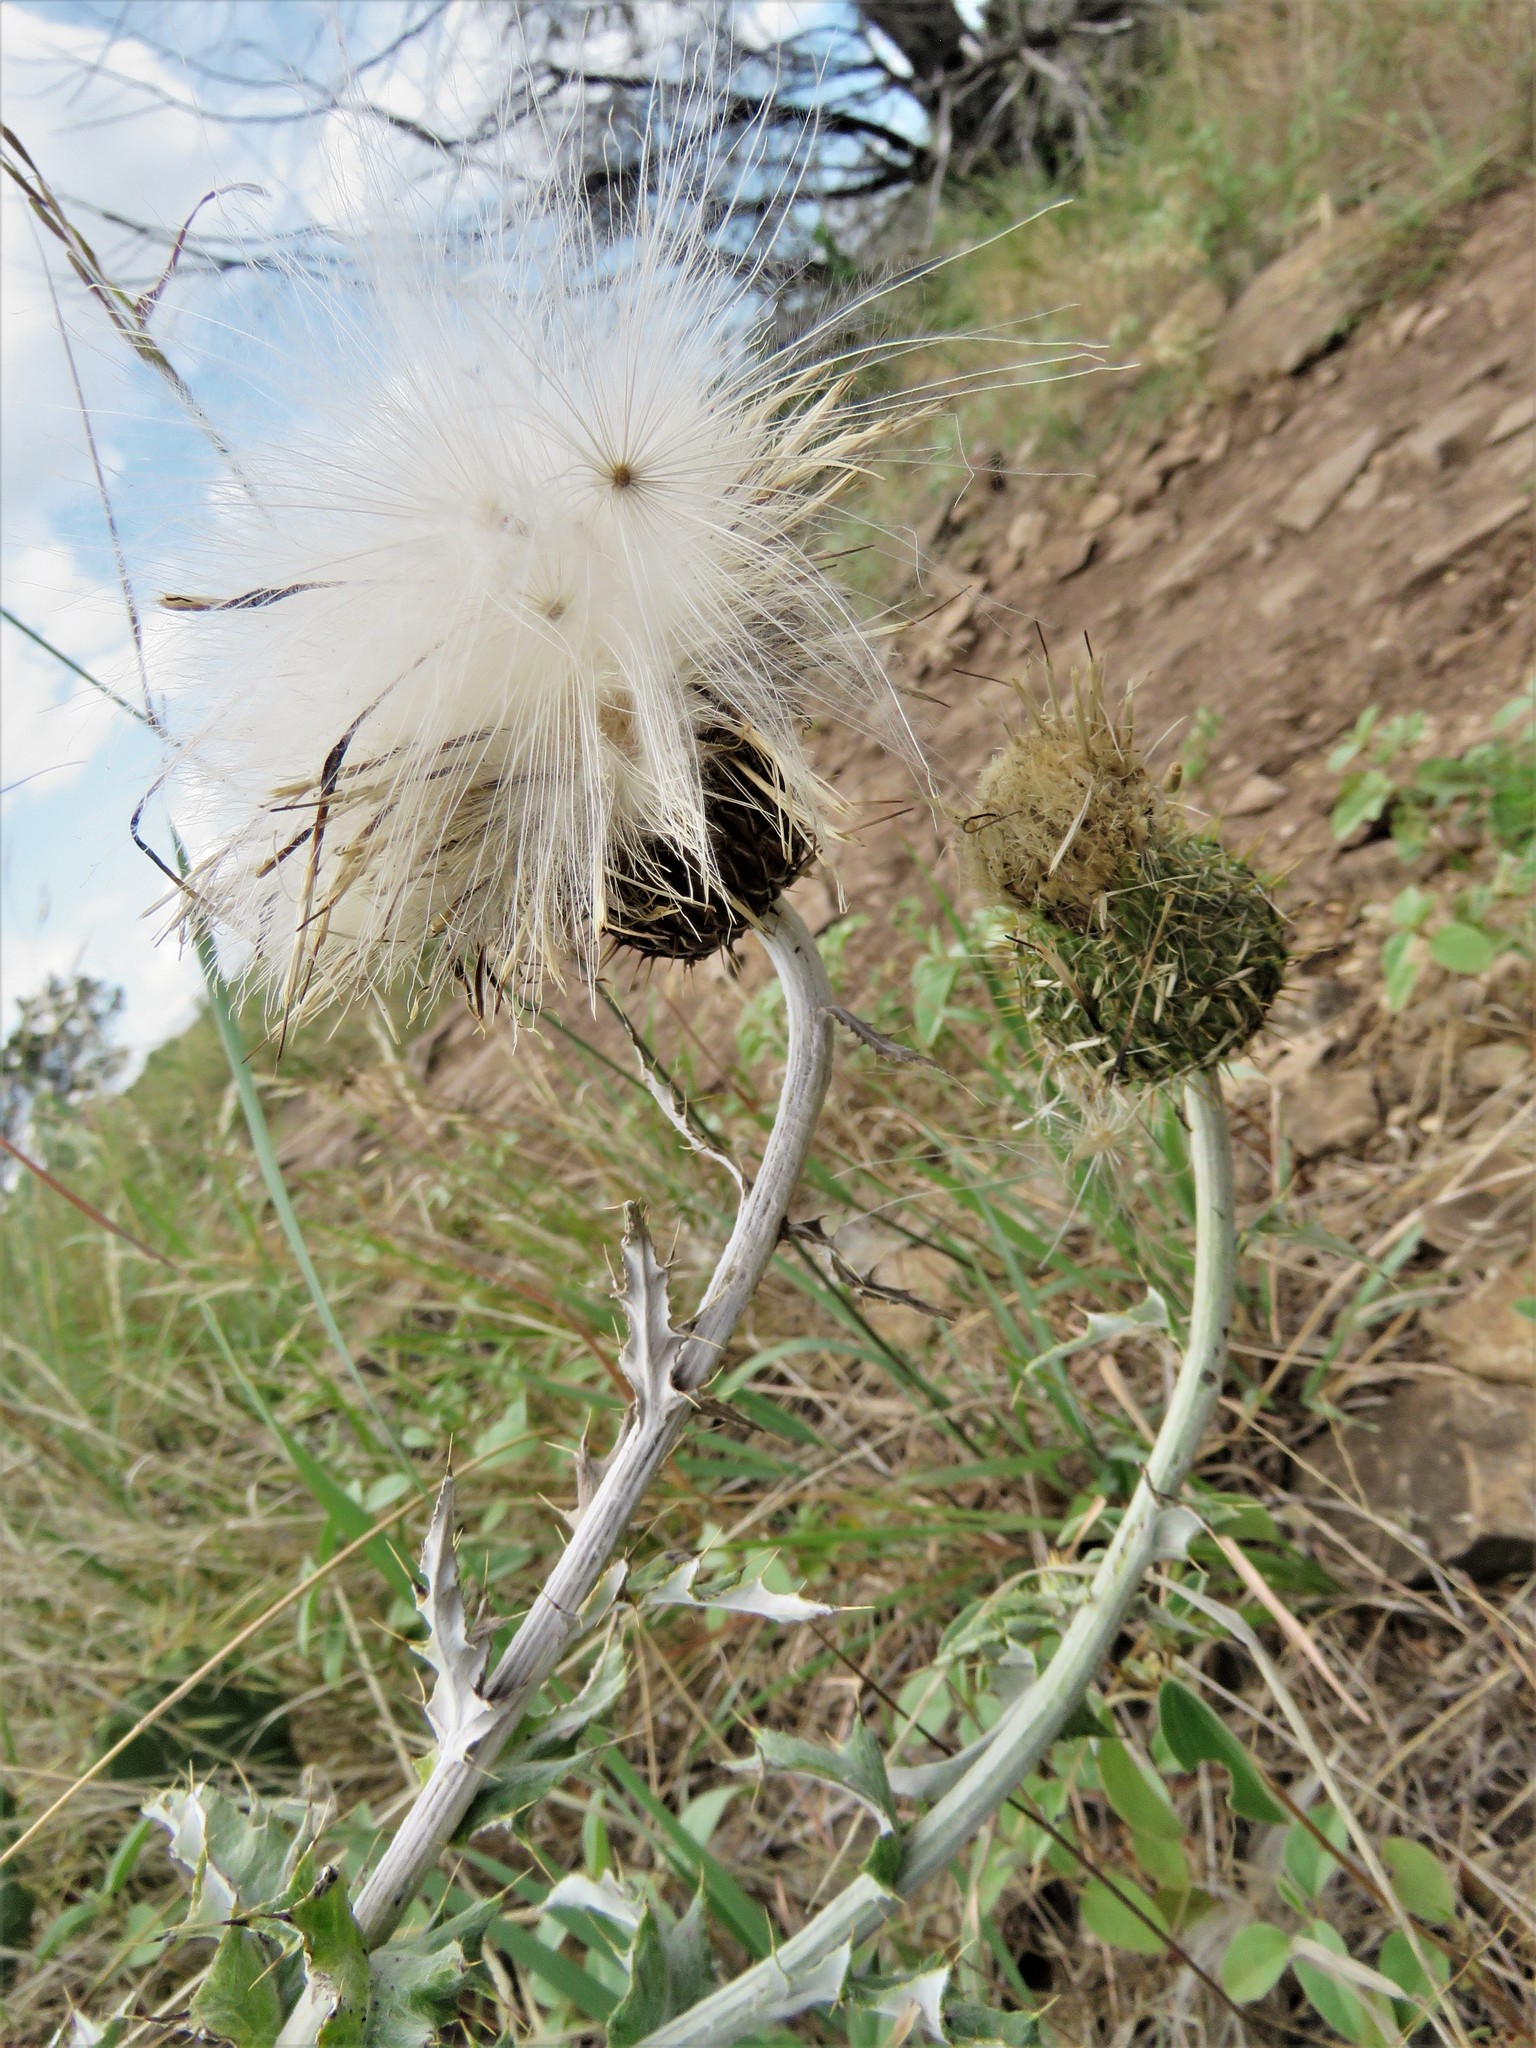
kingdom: Plantae
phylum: Tracheophyta
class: Magnoliopsida
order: Asterales
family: Asteraceae
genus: Cirsium
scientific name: Cirsium undulatum
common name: Pasture thistle
